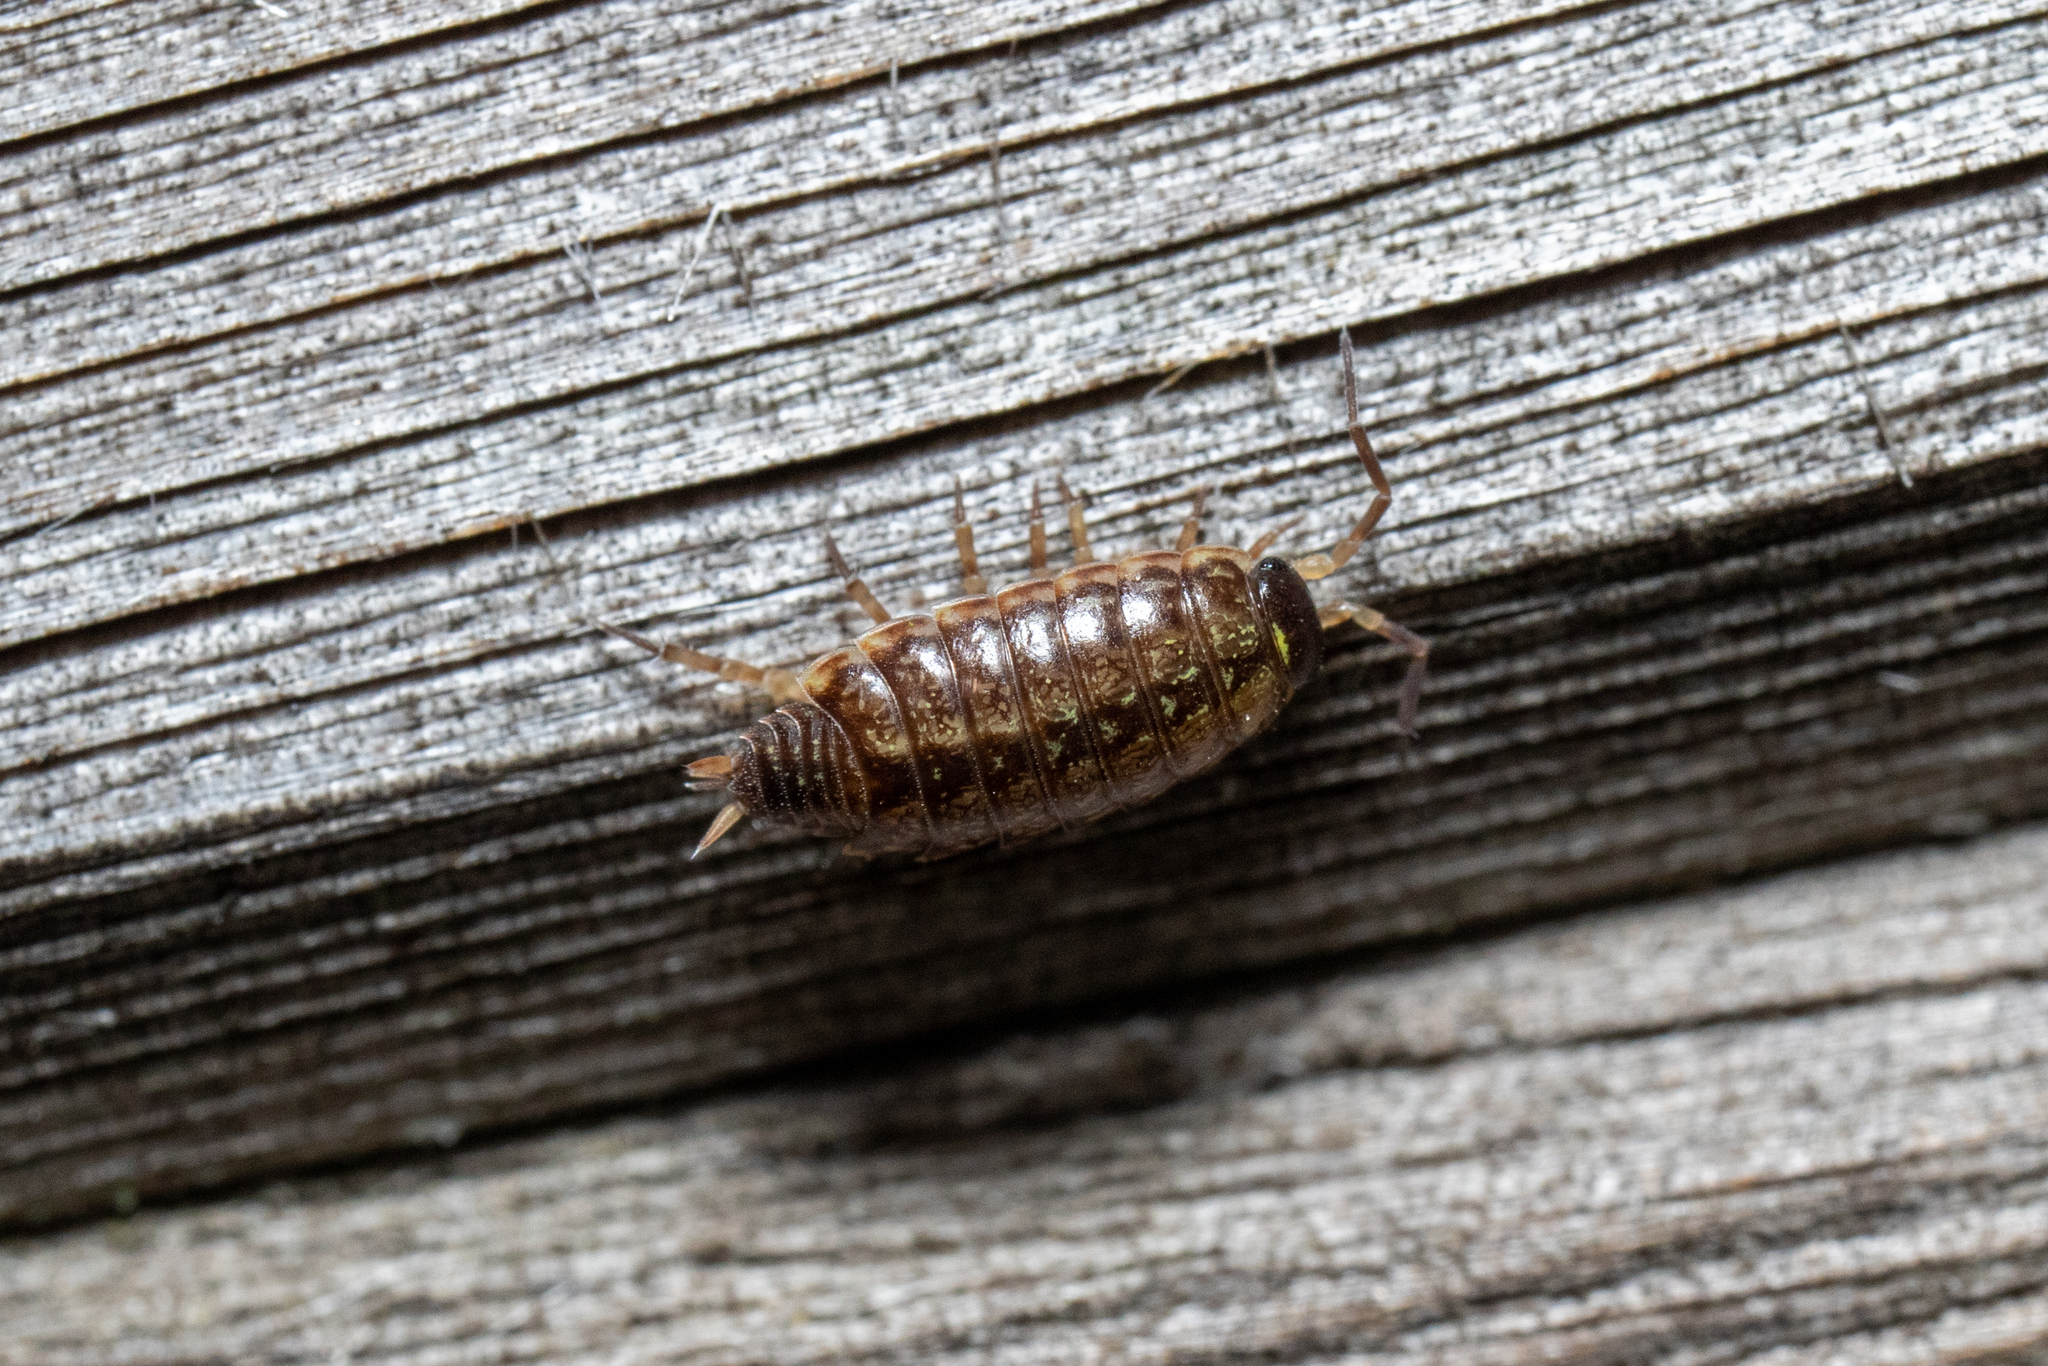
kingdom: Animalia
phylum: Arthropoda
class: Malacostraca
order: Isopoda
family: Philosciidae
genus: Philoscia
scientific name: Philoscia muscorum
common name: Common striped woodlouse
